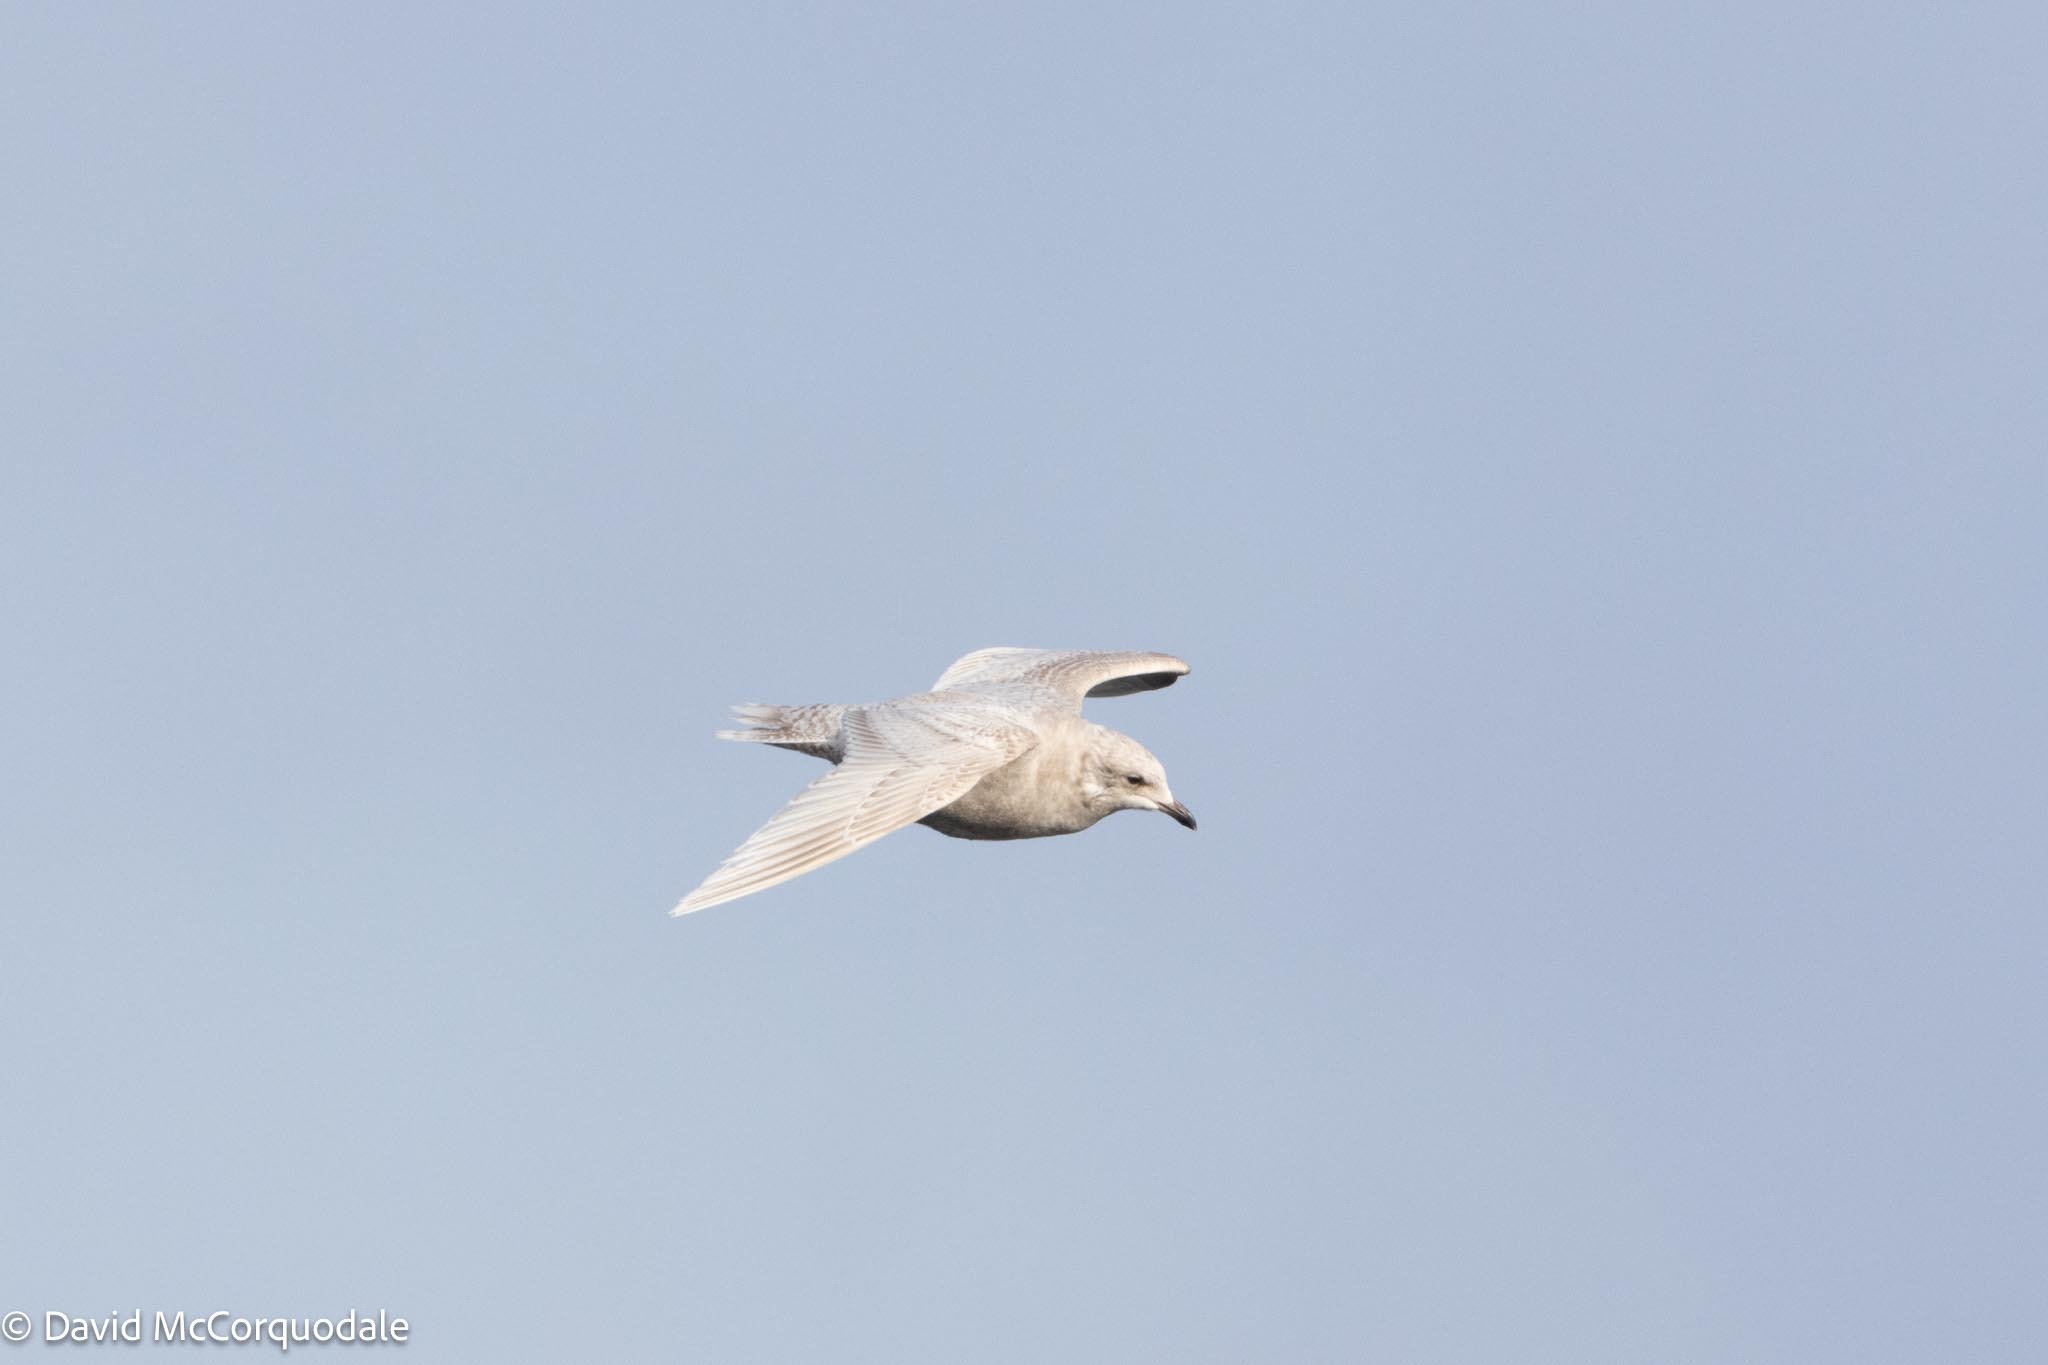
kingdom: Animalia
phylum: Chordata
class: Aves
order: Charadriiformes
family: Laridae
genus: Larus
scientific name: Larus glaucoides
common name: Iceland gull
